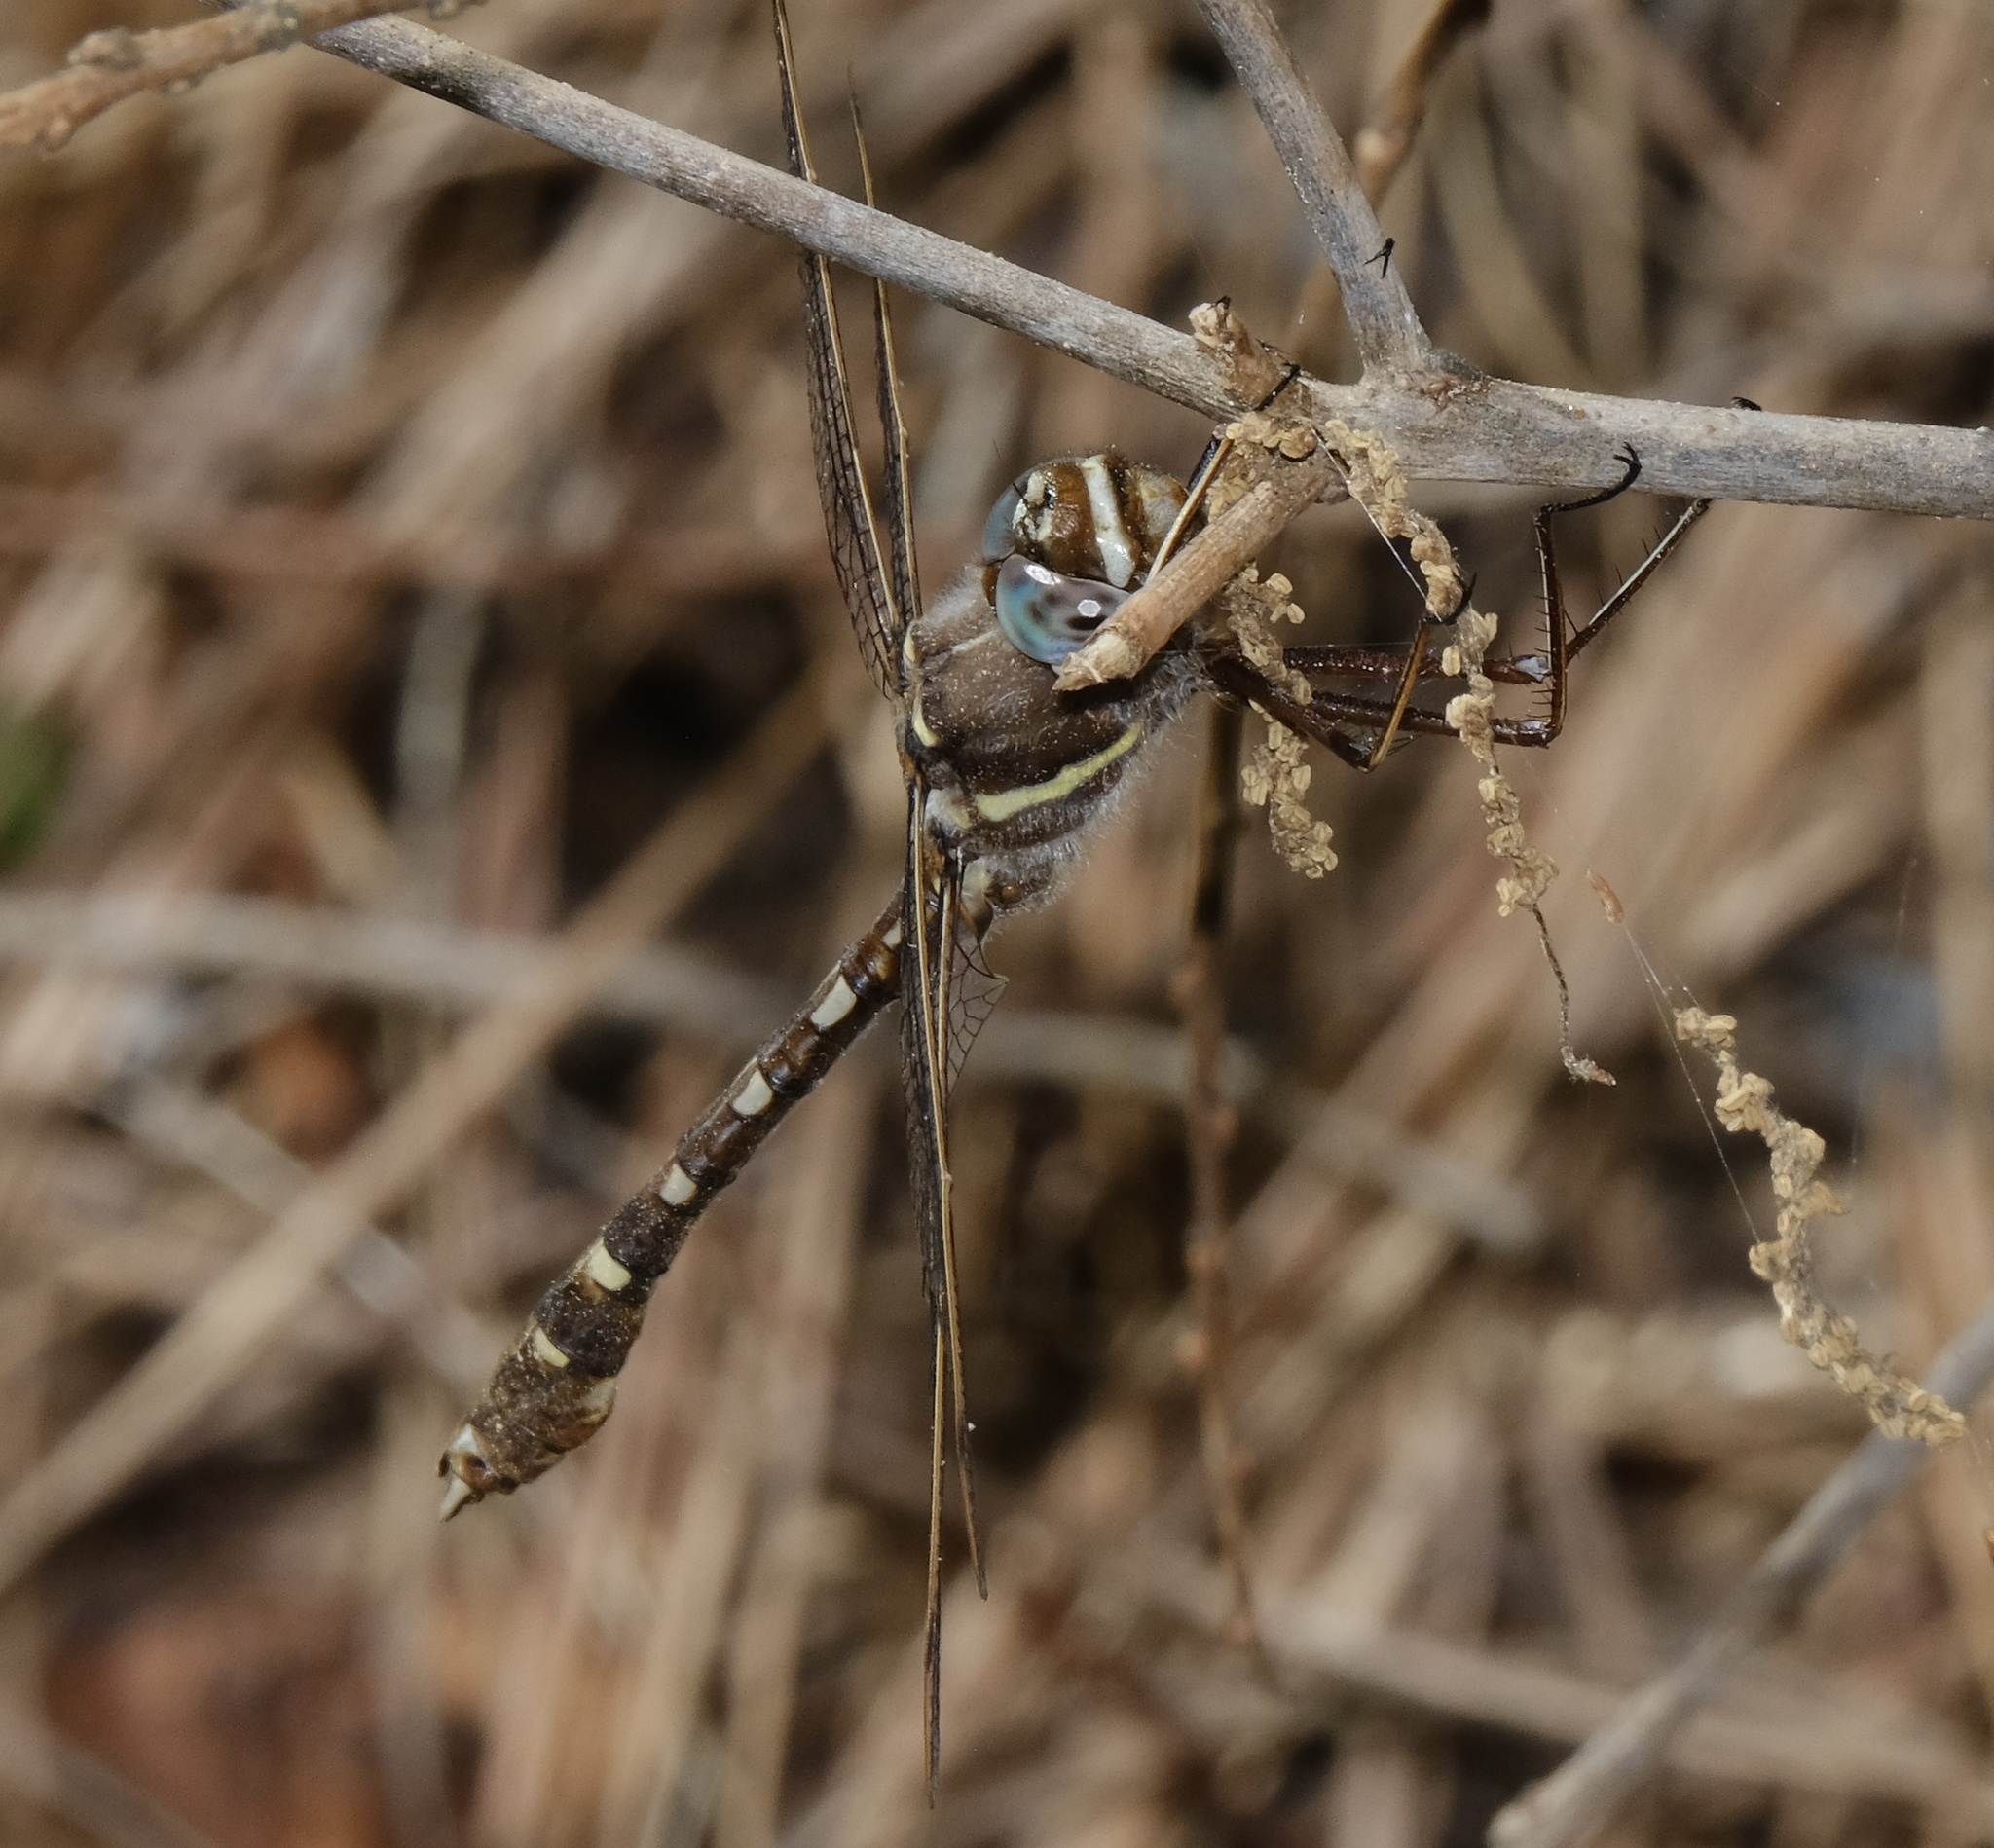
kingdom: Animalia
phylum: Arthropoda
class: Insecta
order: Odonata
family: Macromiidae
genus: Didymops
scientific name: Didymops transversa
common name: Stream cruiser
